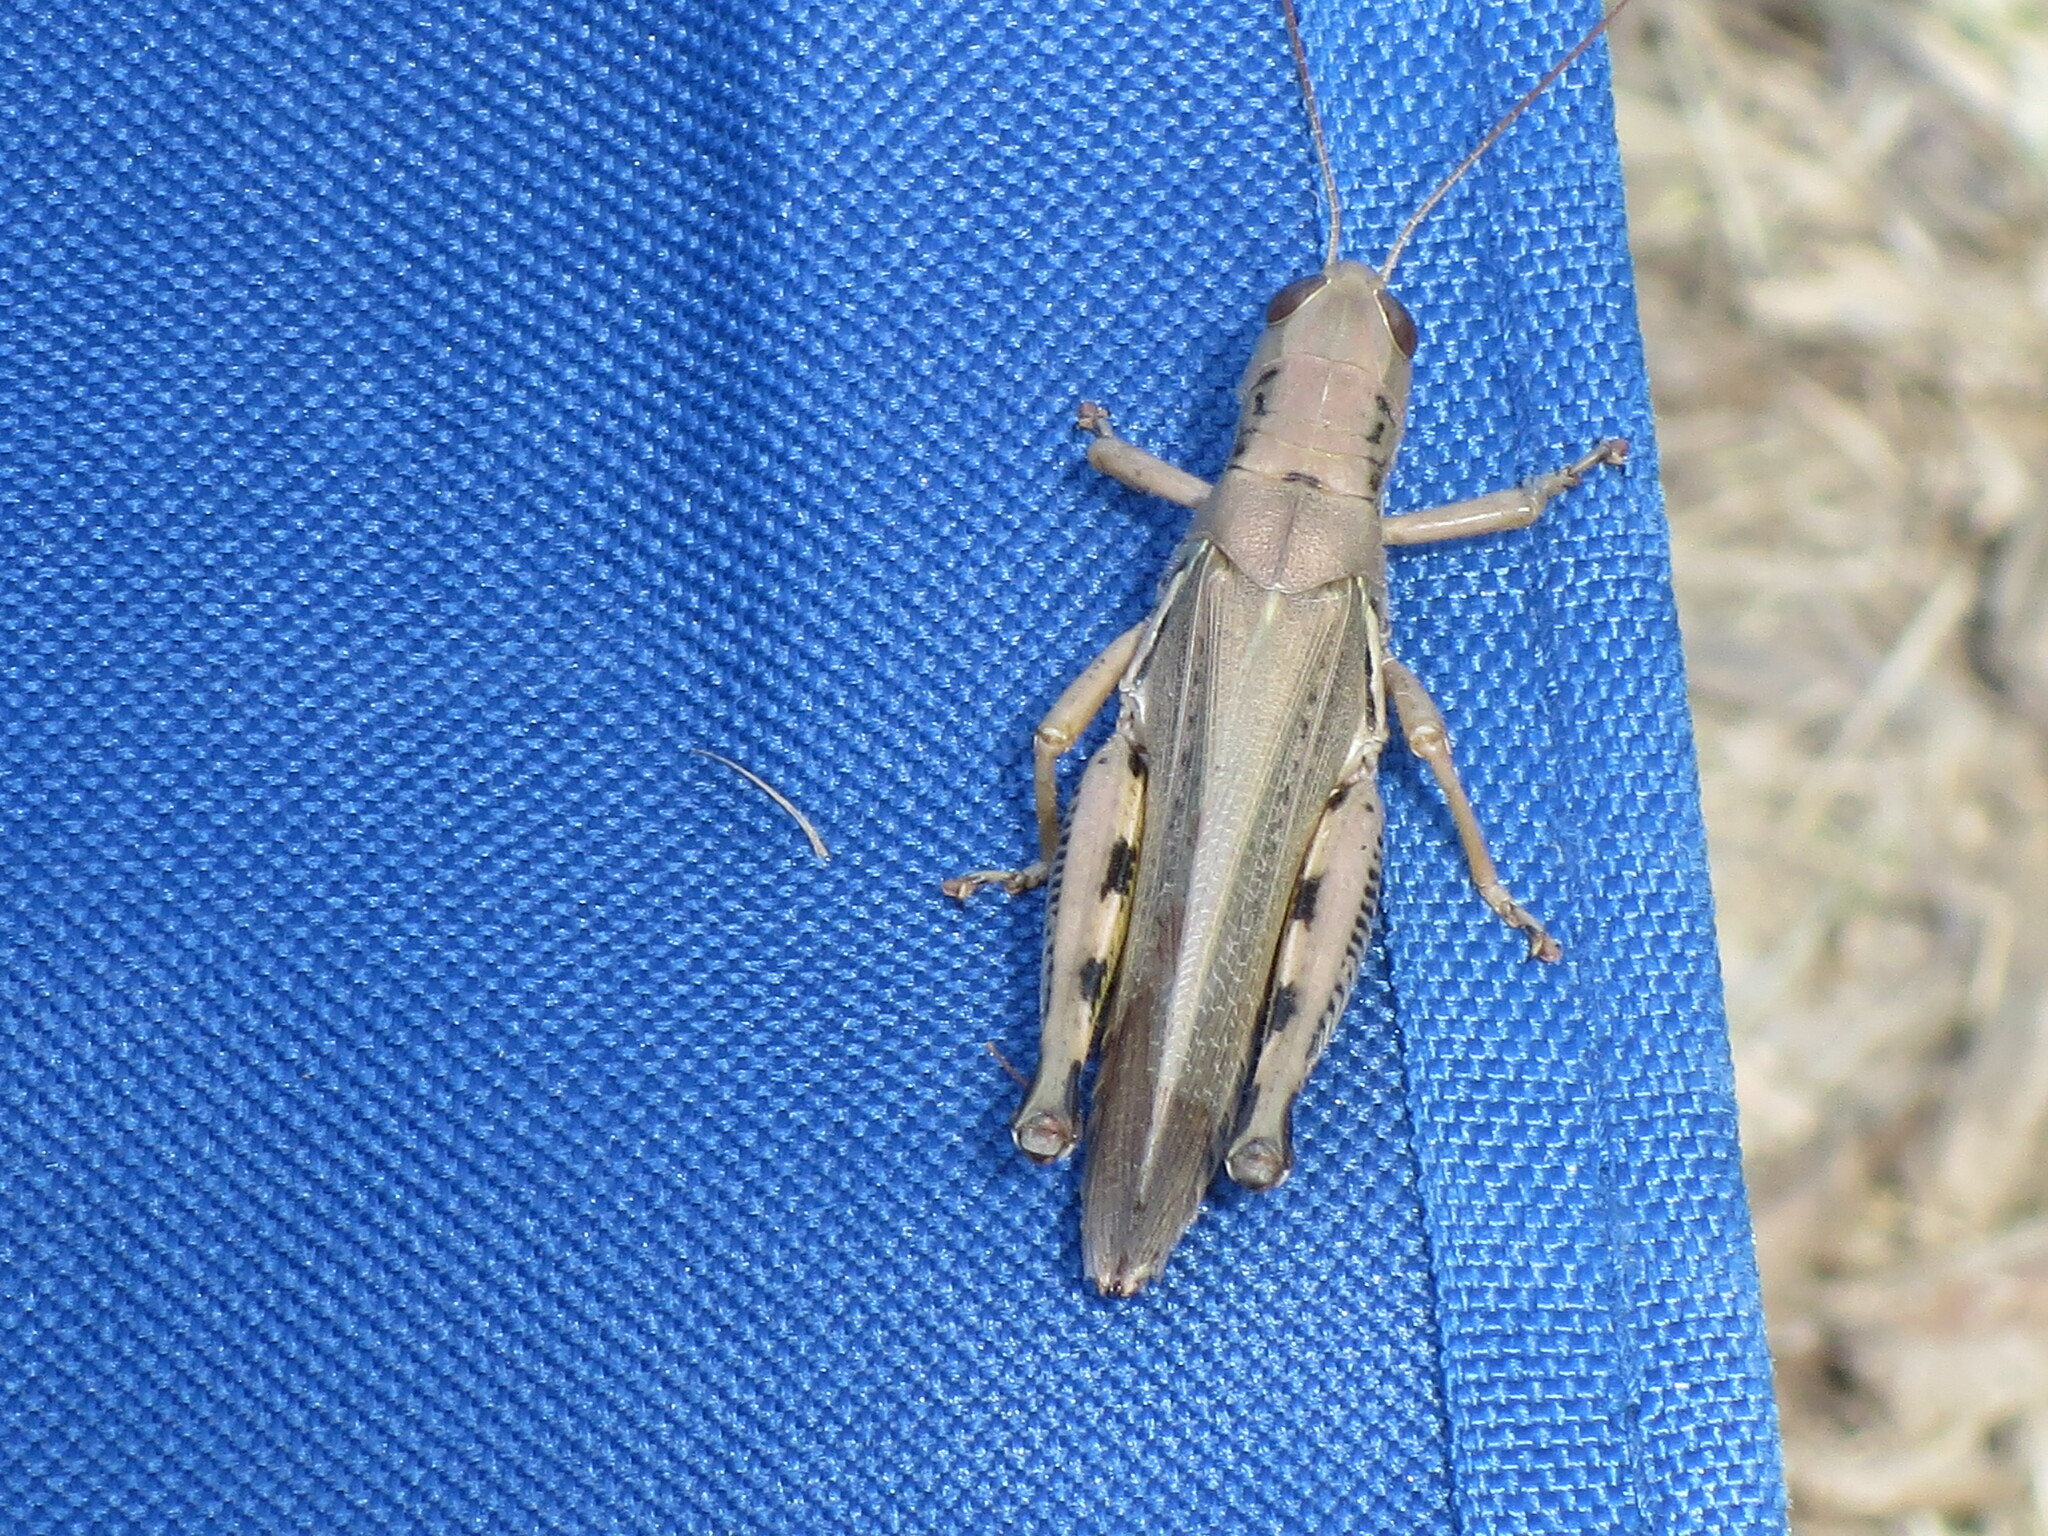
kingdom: Animalia
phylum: Arthropoda
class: Insecta
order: Orthoptera
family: Acrididae
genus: Melanoplus
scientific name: Melanoplus differentialis
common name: Differential grasshopper
